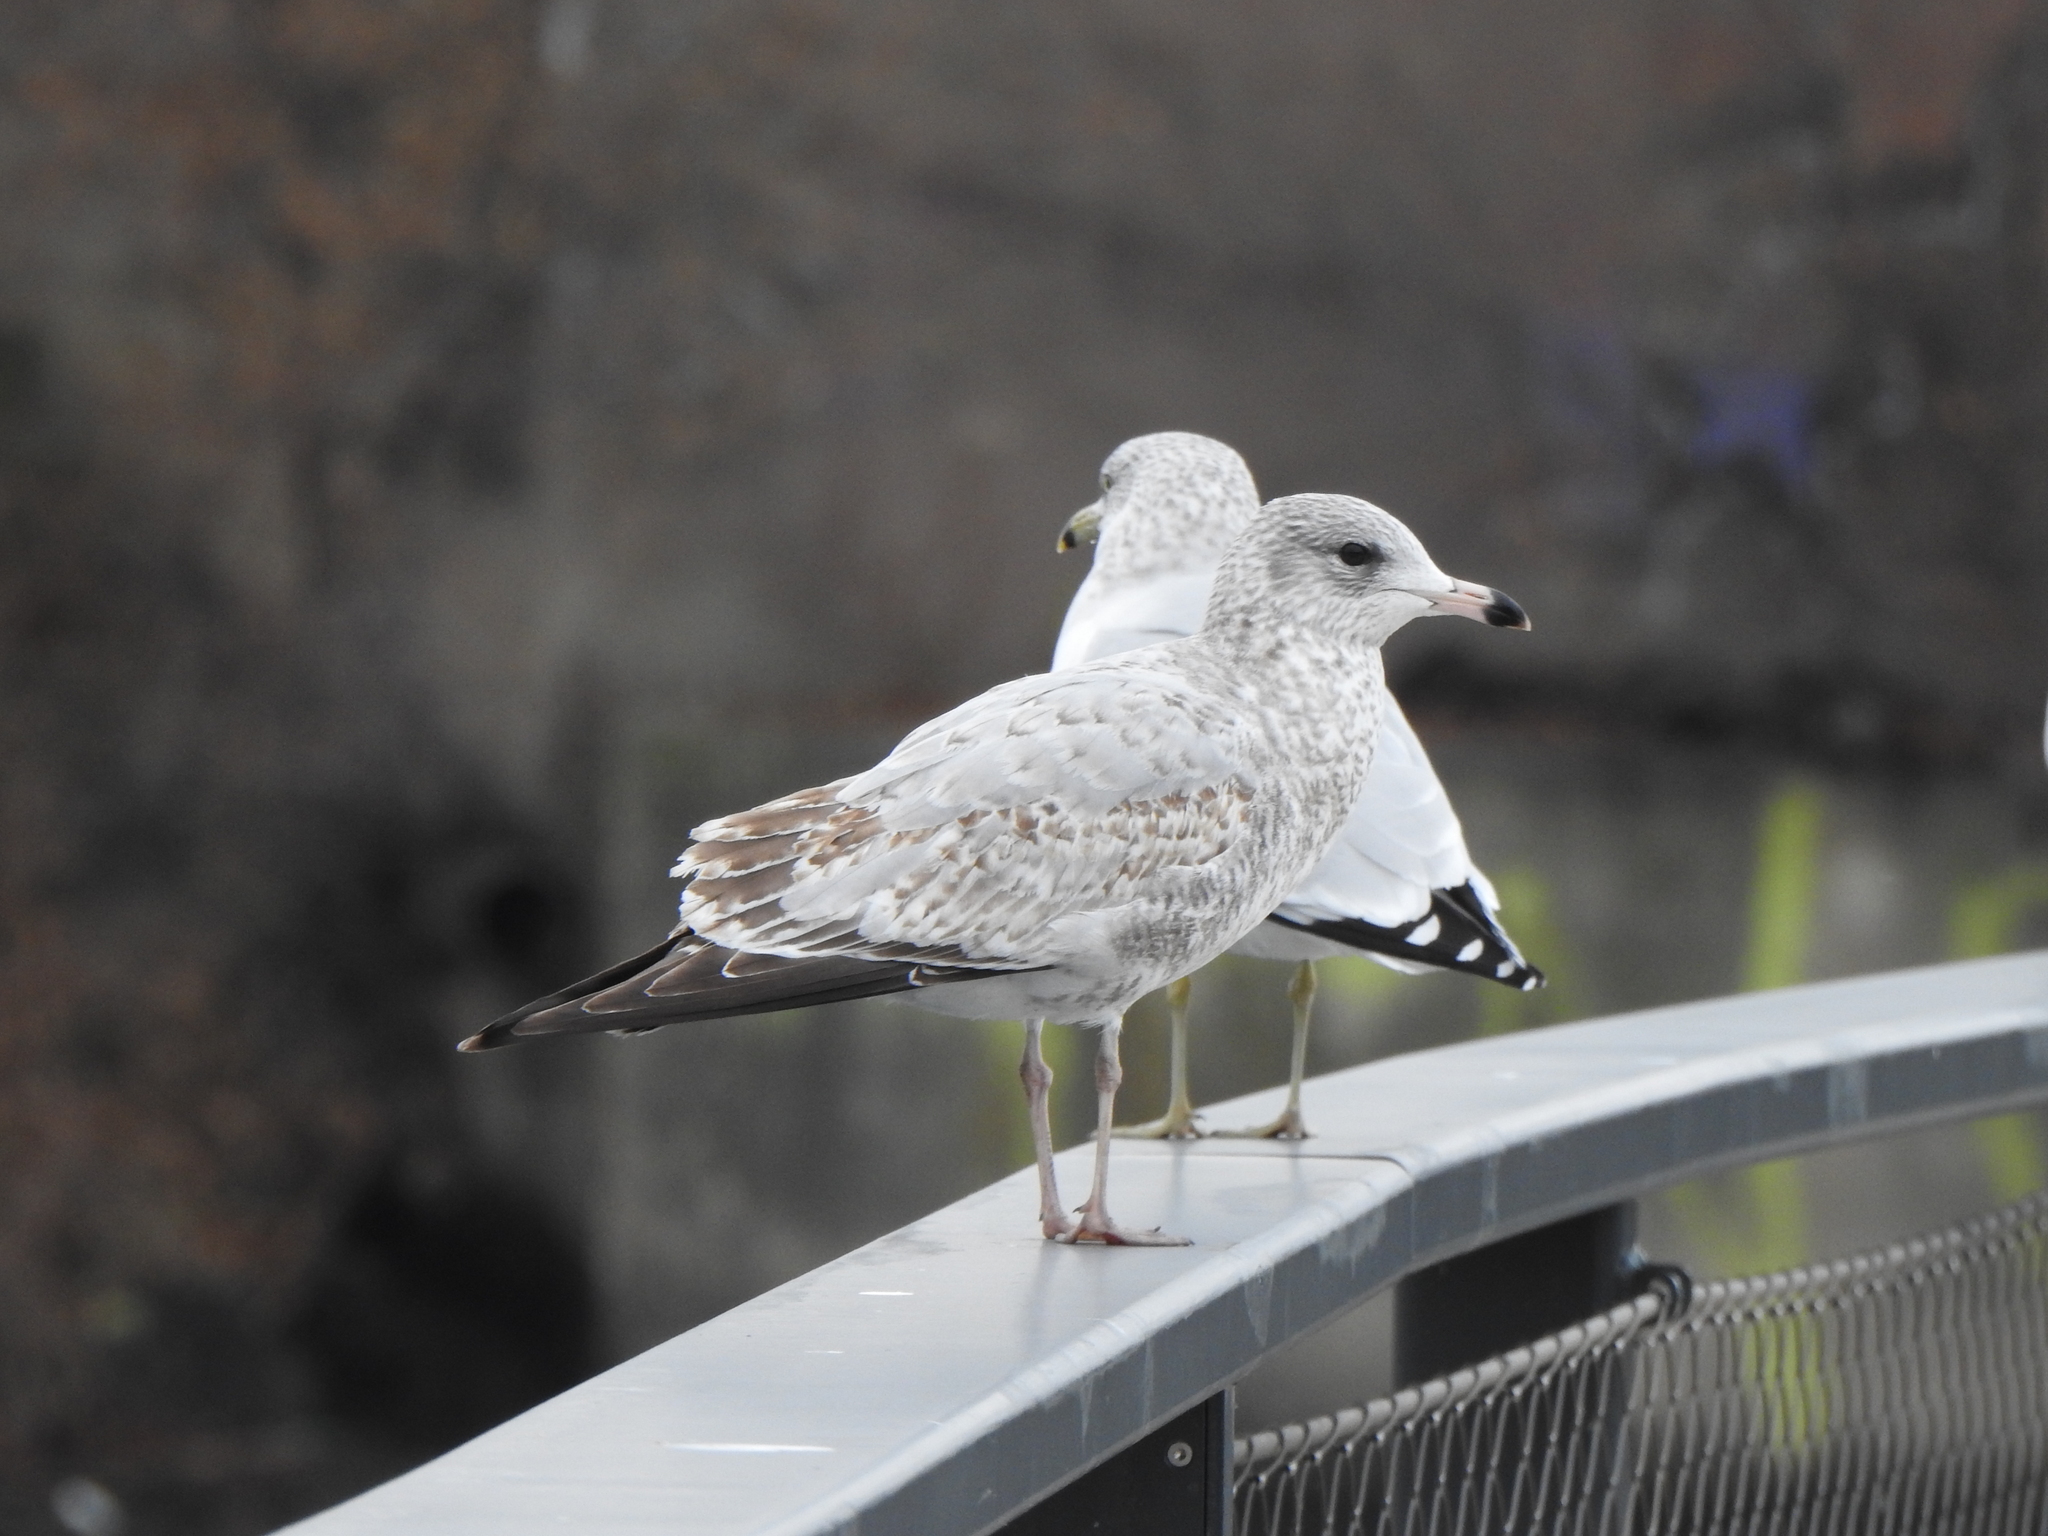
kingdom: Animalia
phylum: Chordata
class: Aves
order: Charadriiformes
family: Laridae
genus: Larus
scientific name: Larus delawarensis
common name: Ring-billed gull
